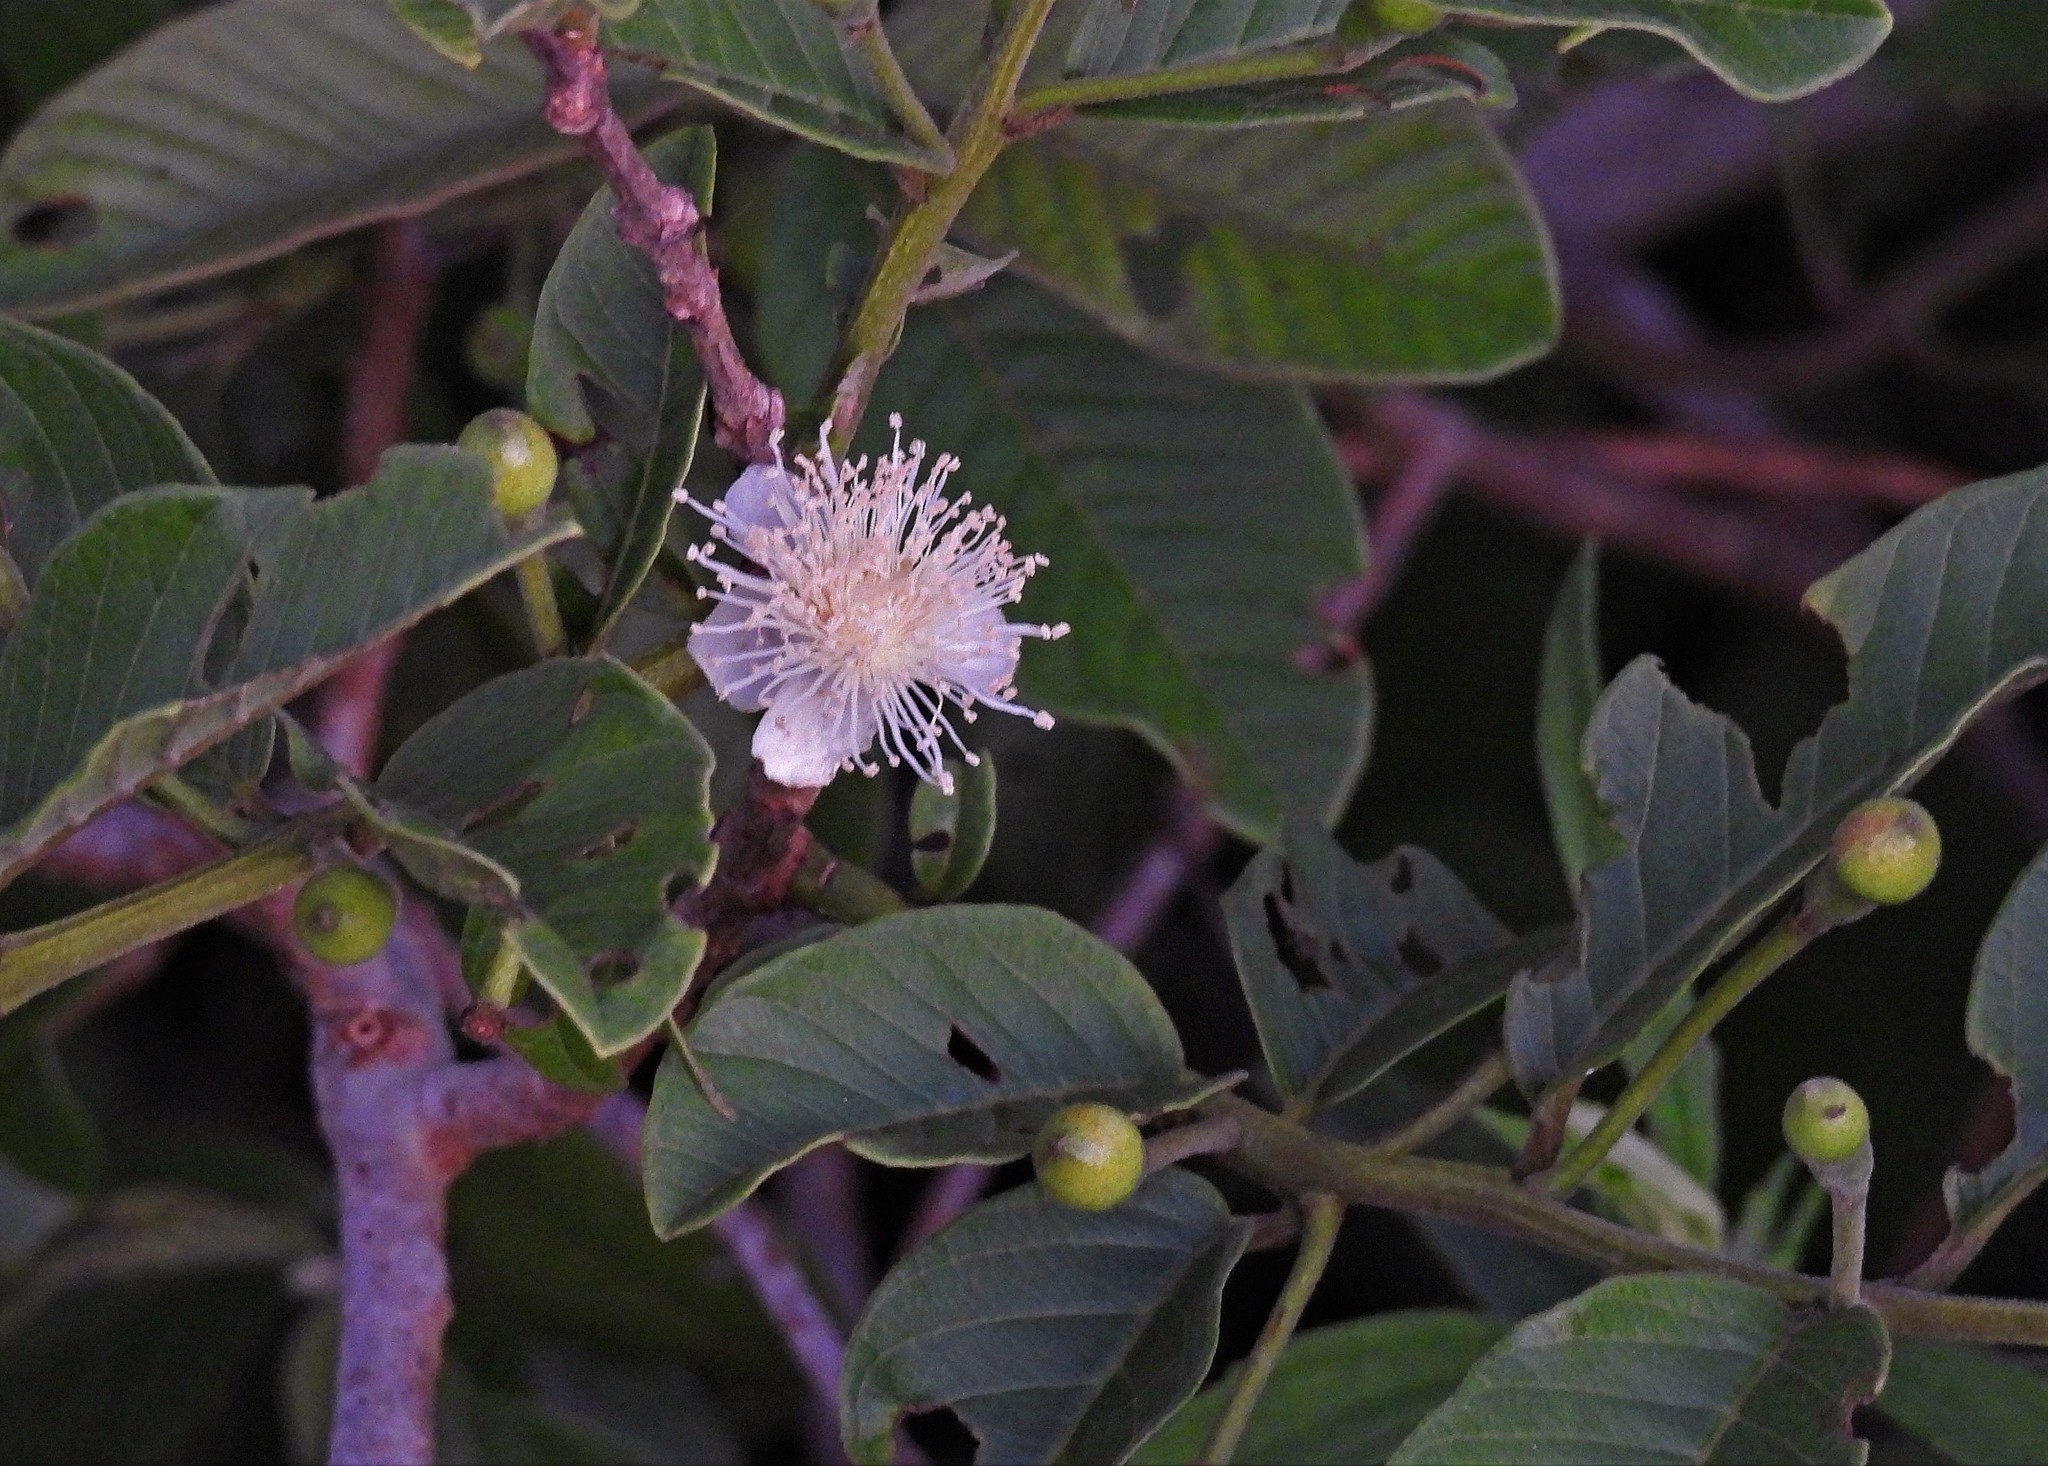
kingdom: Plantae
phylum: Tracheophyta
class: Magnoliopsida
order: Myrtales
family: Myrtaceae
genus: Psidium
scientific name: Psidium guajava
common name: Guava
